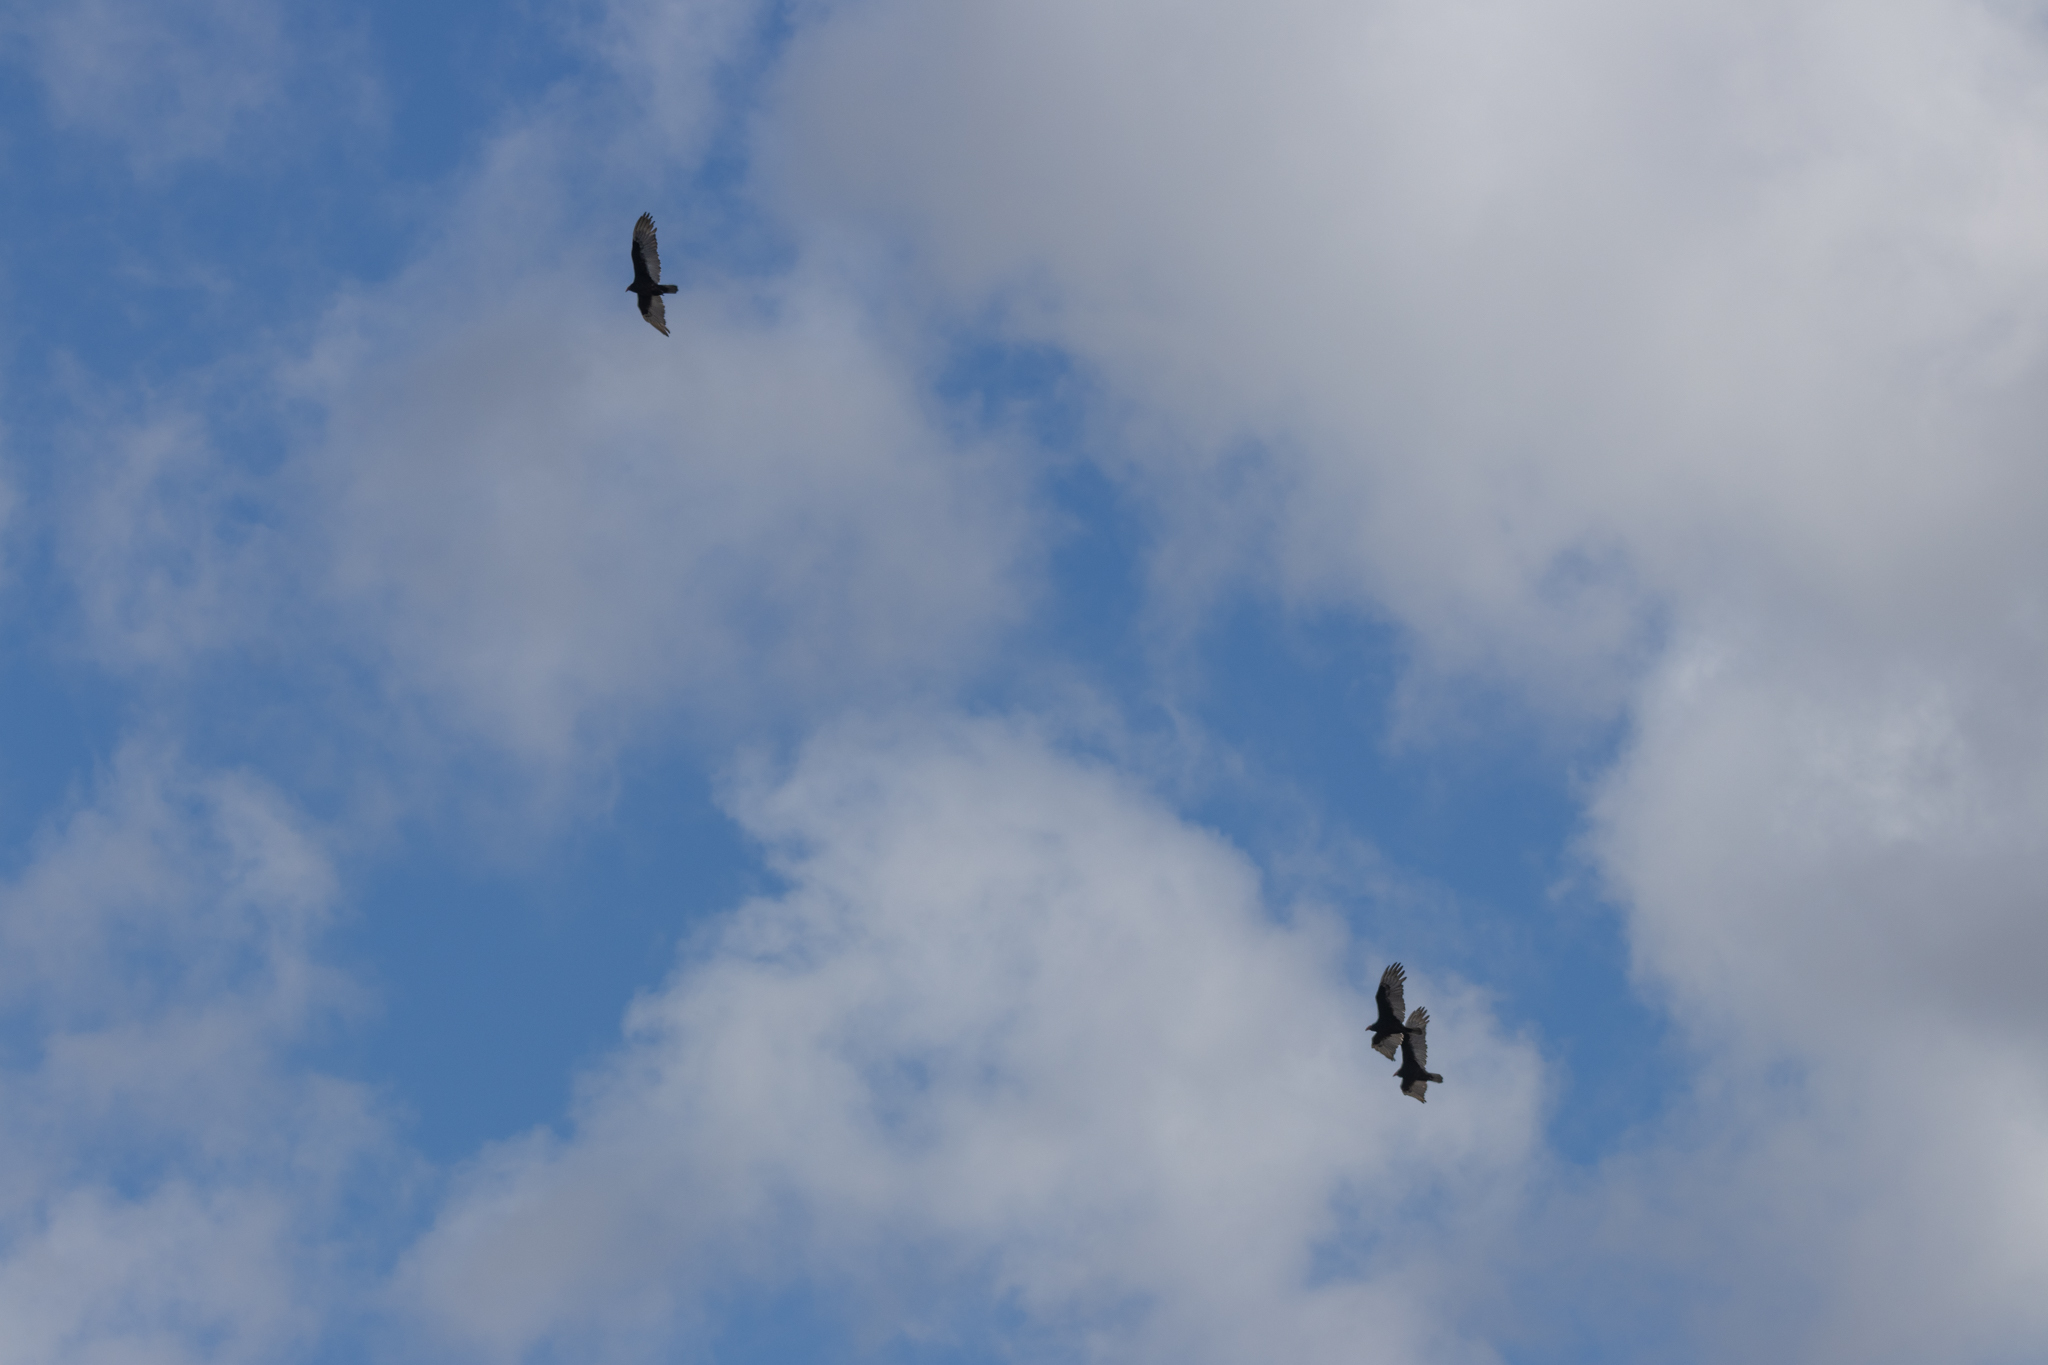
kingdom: Animalia
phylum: Chordata
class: Aves
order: Accipitriformes
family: Cathartidae
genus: Cathartes
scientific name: Cathartes aura
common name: Turkey vulture
